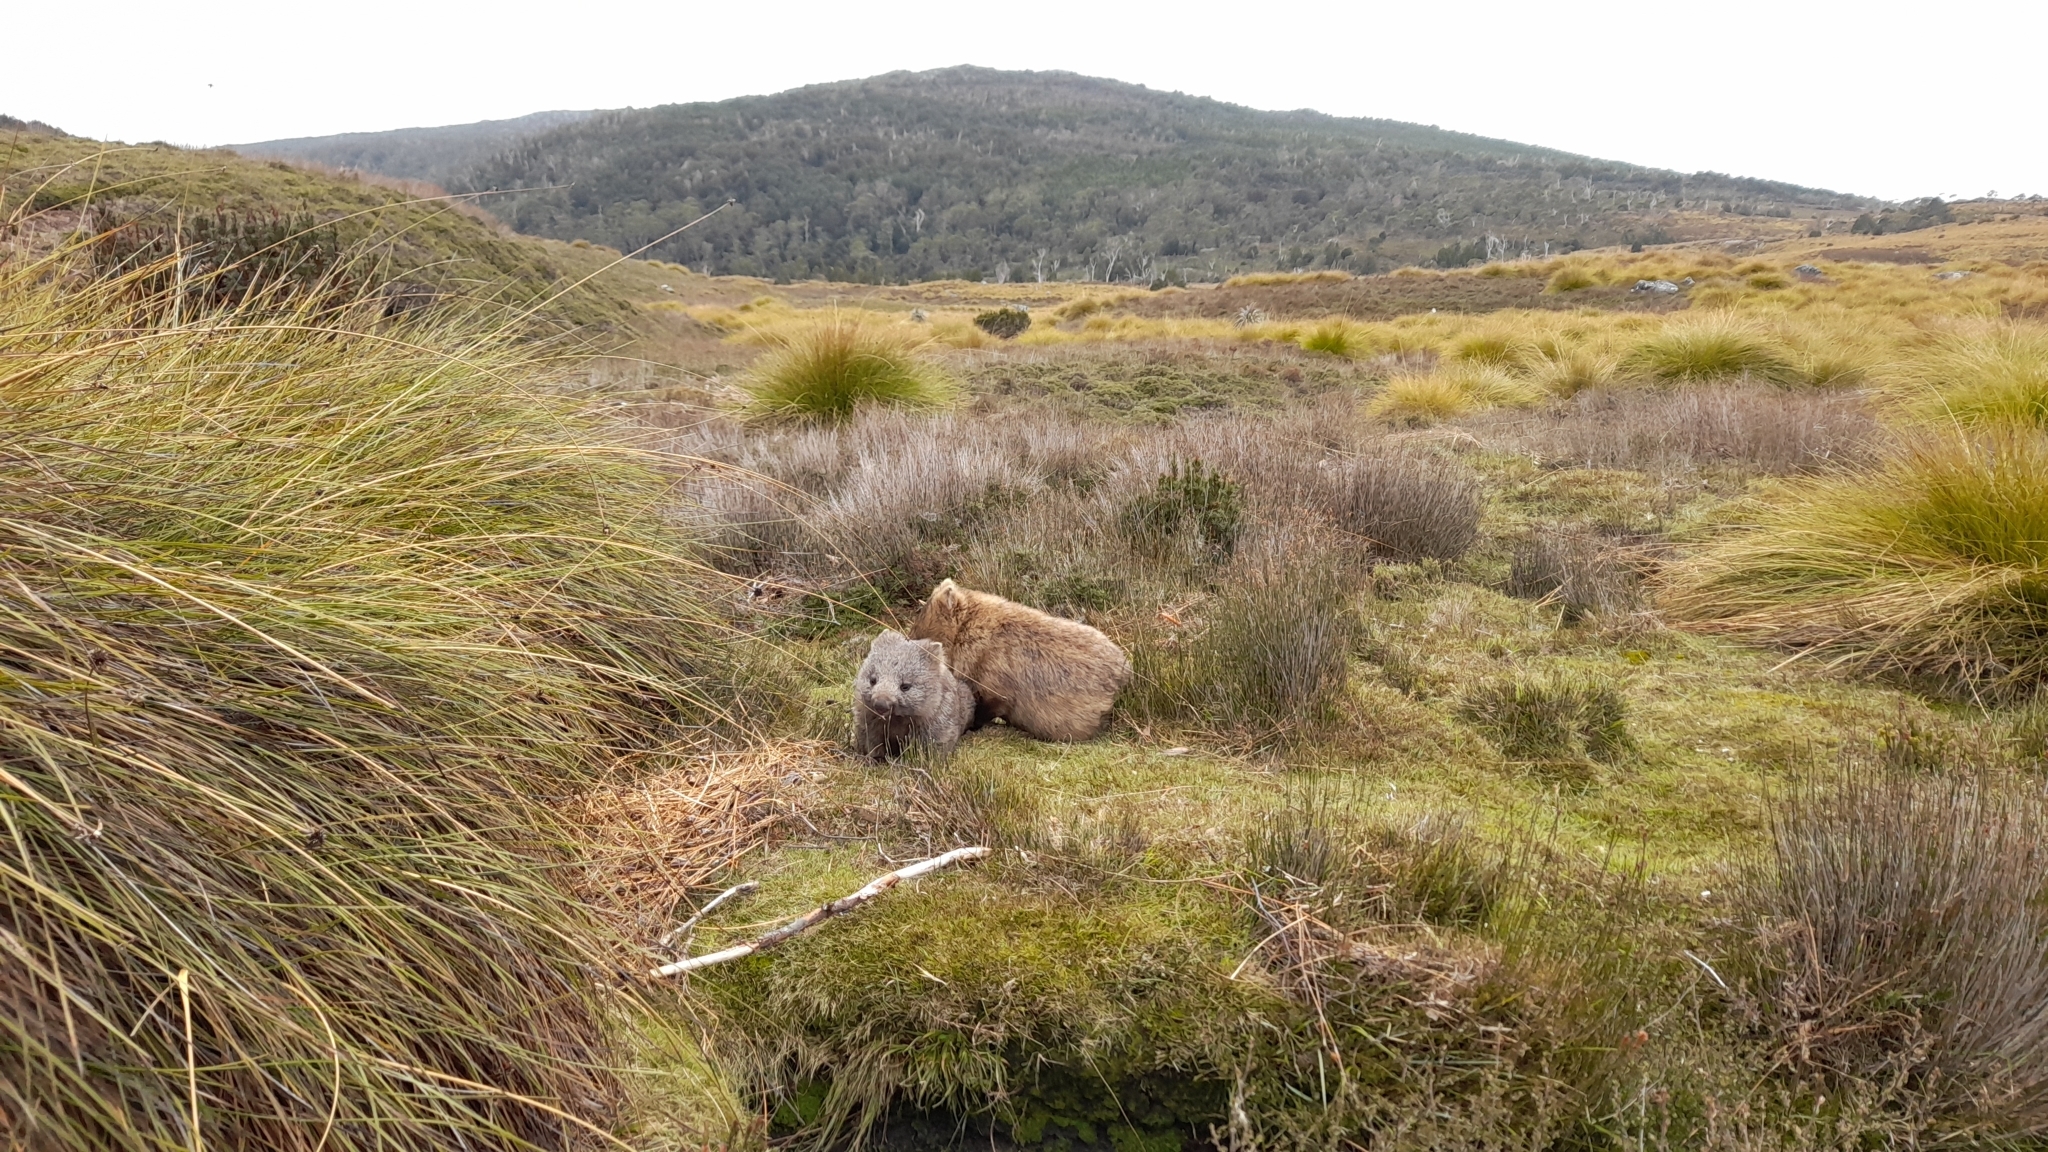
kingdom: Animalia
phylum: Chordata
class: Mammalia
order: Diprotodontia
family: Vombatidae
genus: Vombatus
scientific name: Vombatus ursinus
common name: Common wombat
